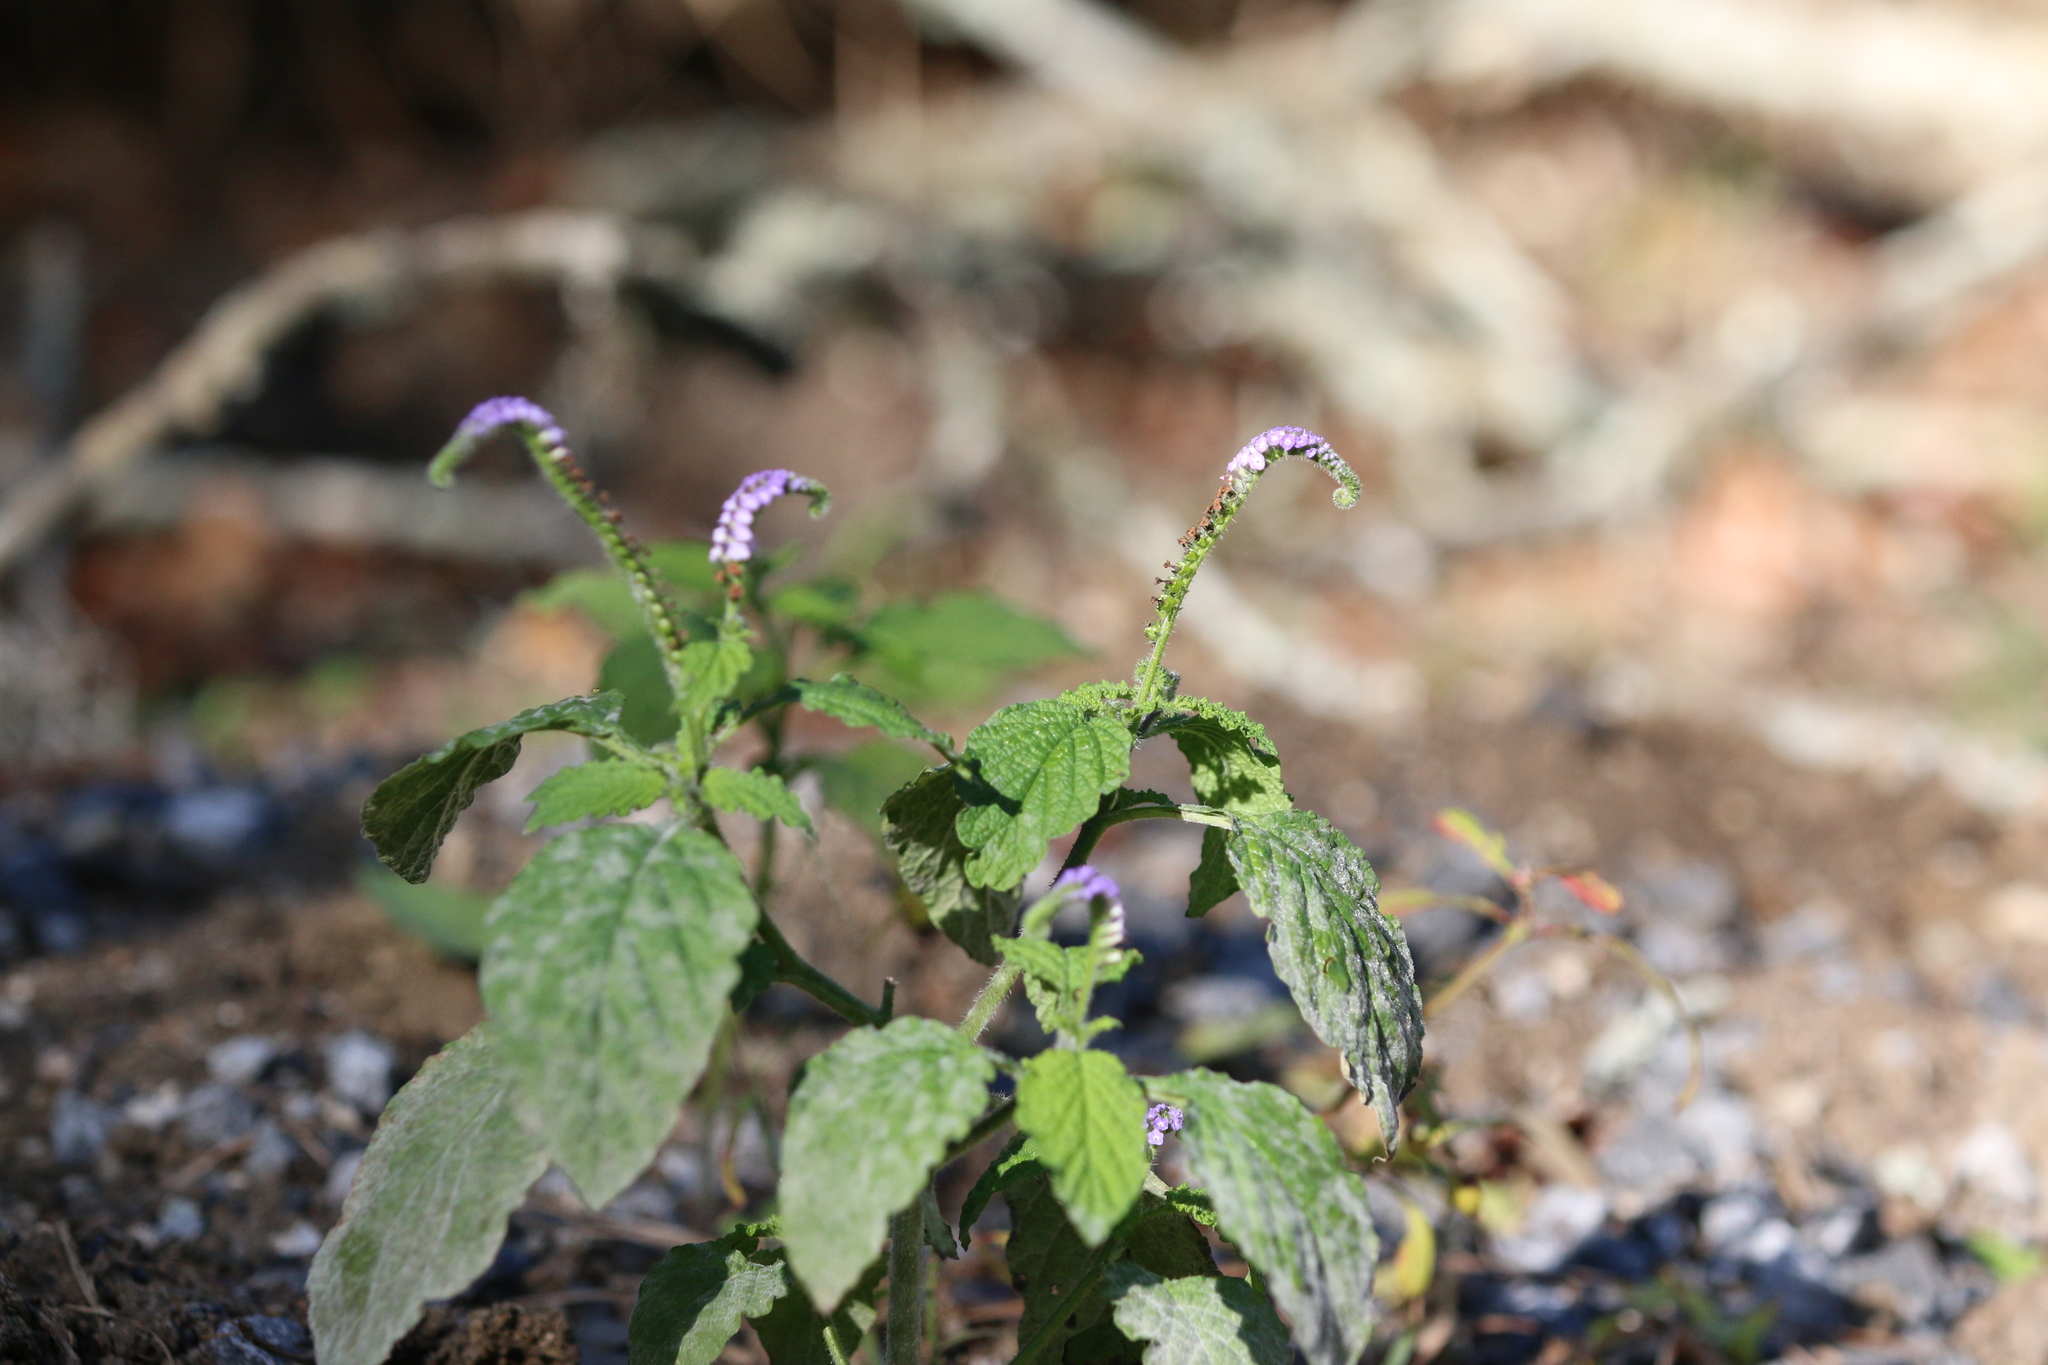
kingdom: Plantae
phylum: Tracheophyta
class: Magnoliopsida
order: Boraginales
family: Heliotropiaceae
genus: Heliotropium
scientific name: Heliotropium indicum
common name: Indian heliotrope
